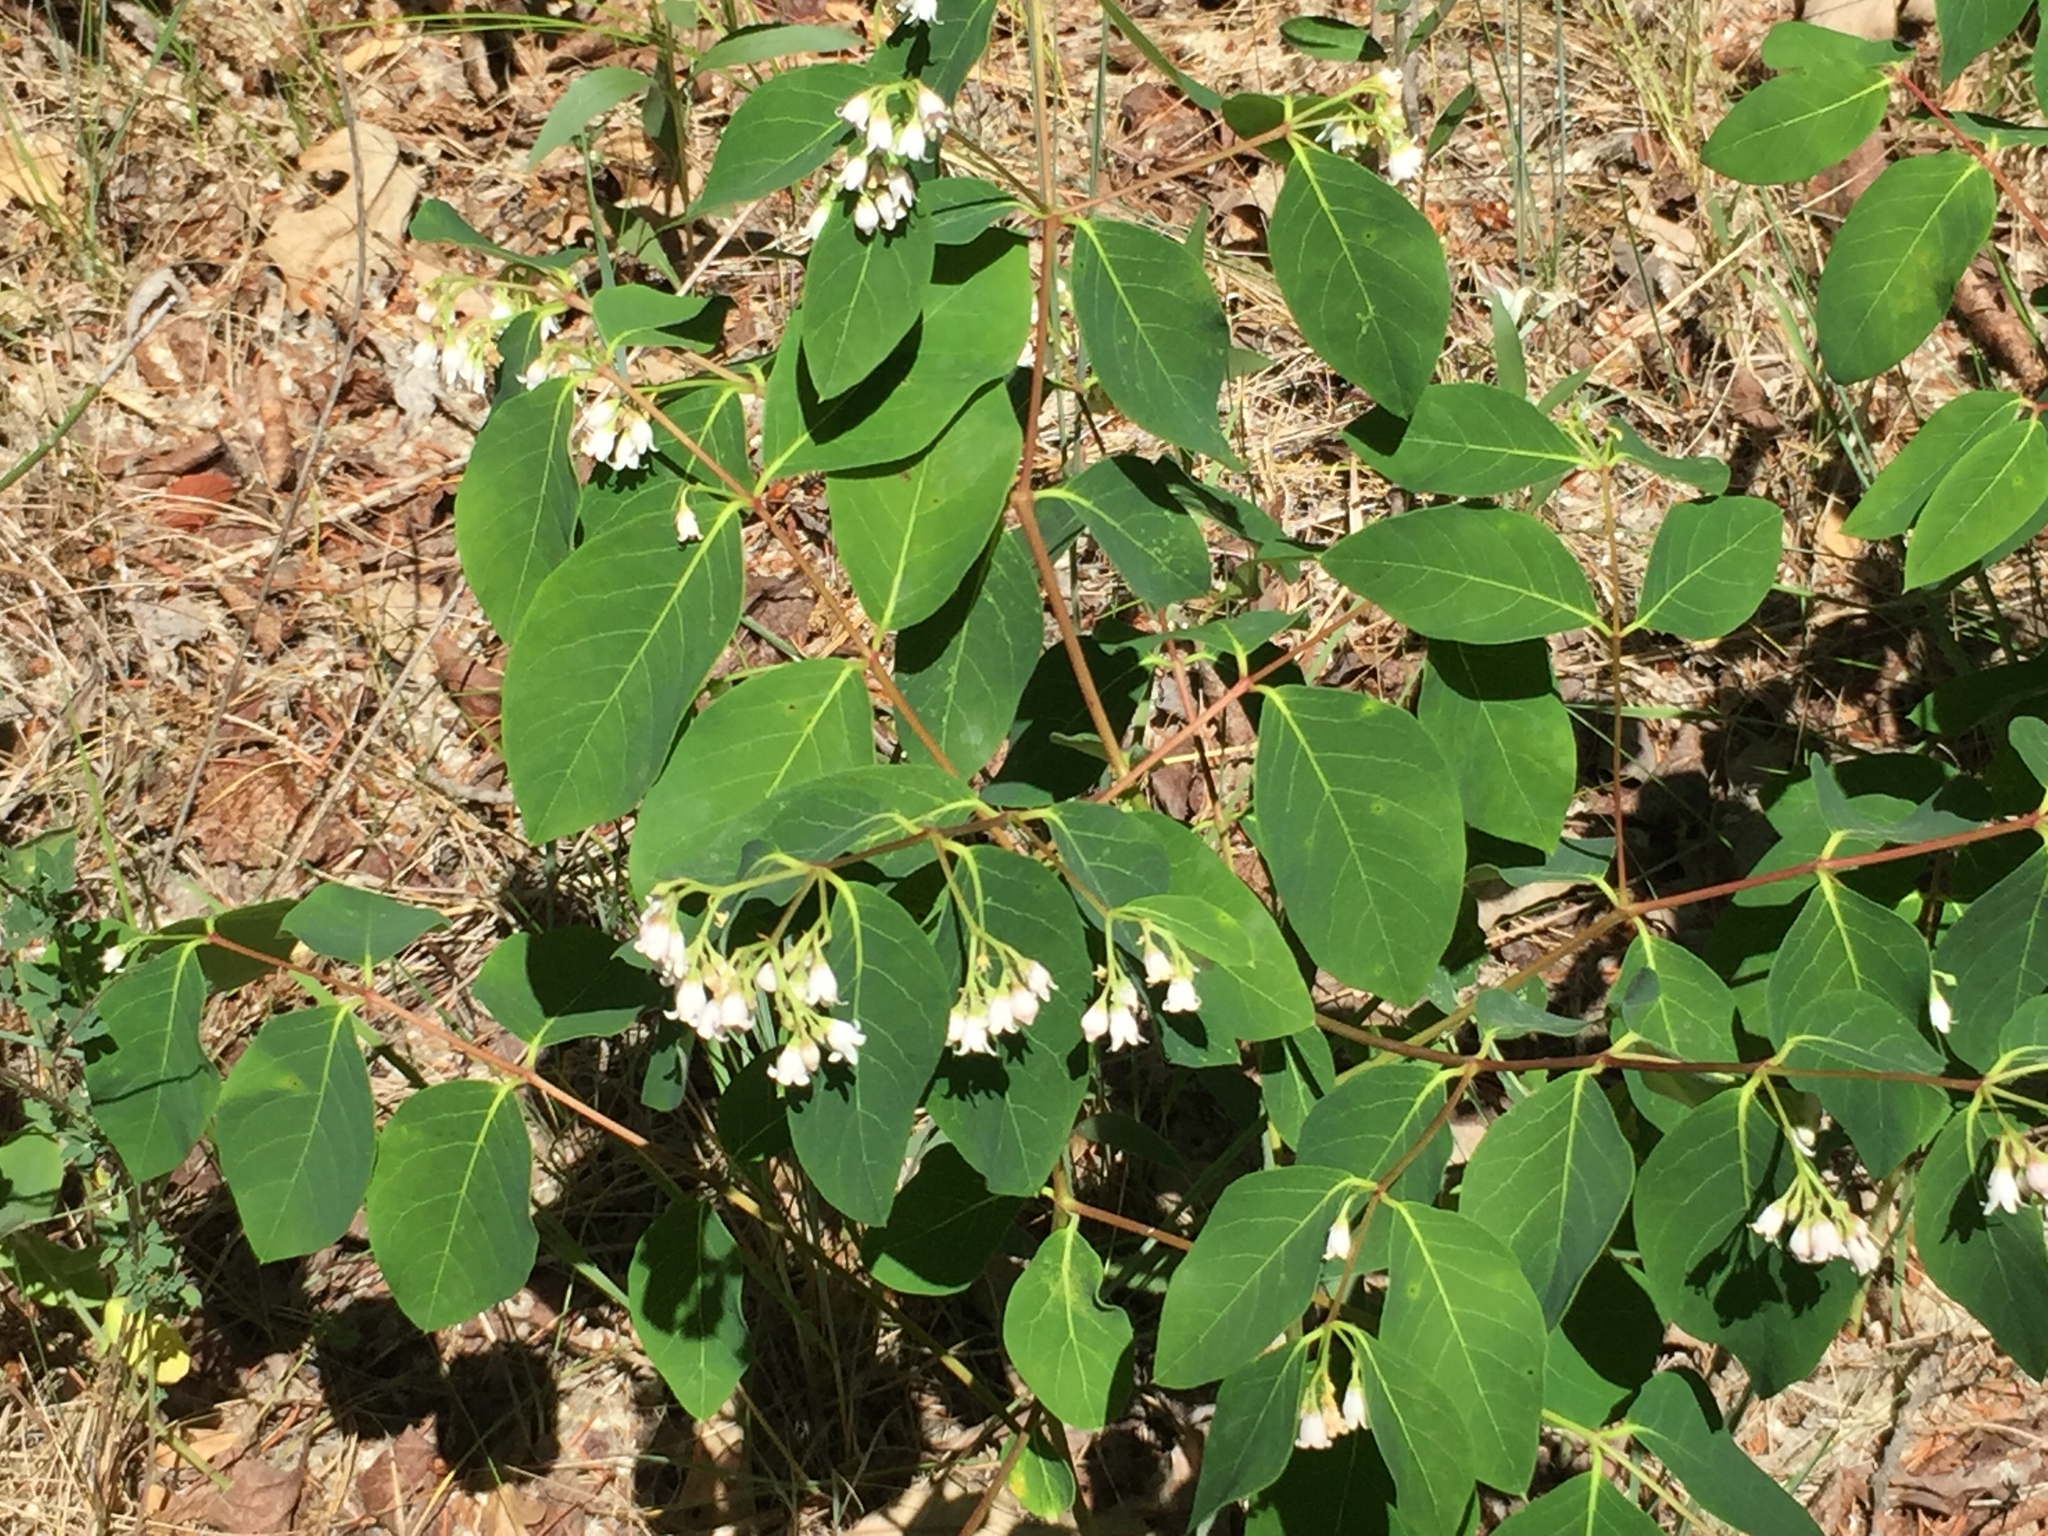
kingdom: Plantae
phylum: Tracheophyta
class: Magnoliopsida
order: Gentianales
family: Apocynaceae
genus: Apocynum
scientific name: Apocynum androsaemifolium
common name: Spreading dogbane
